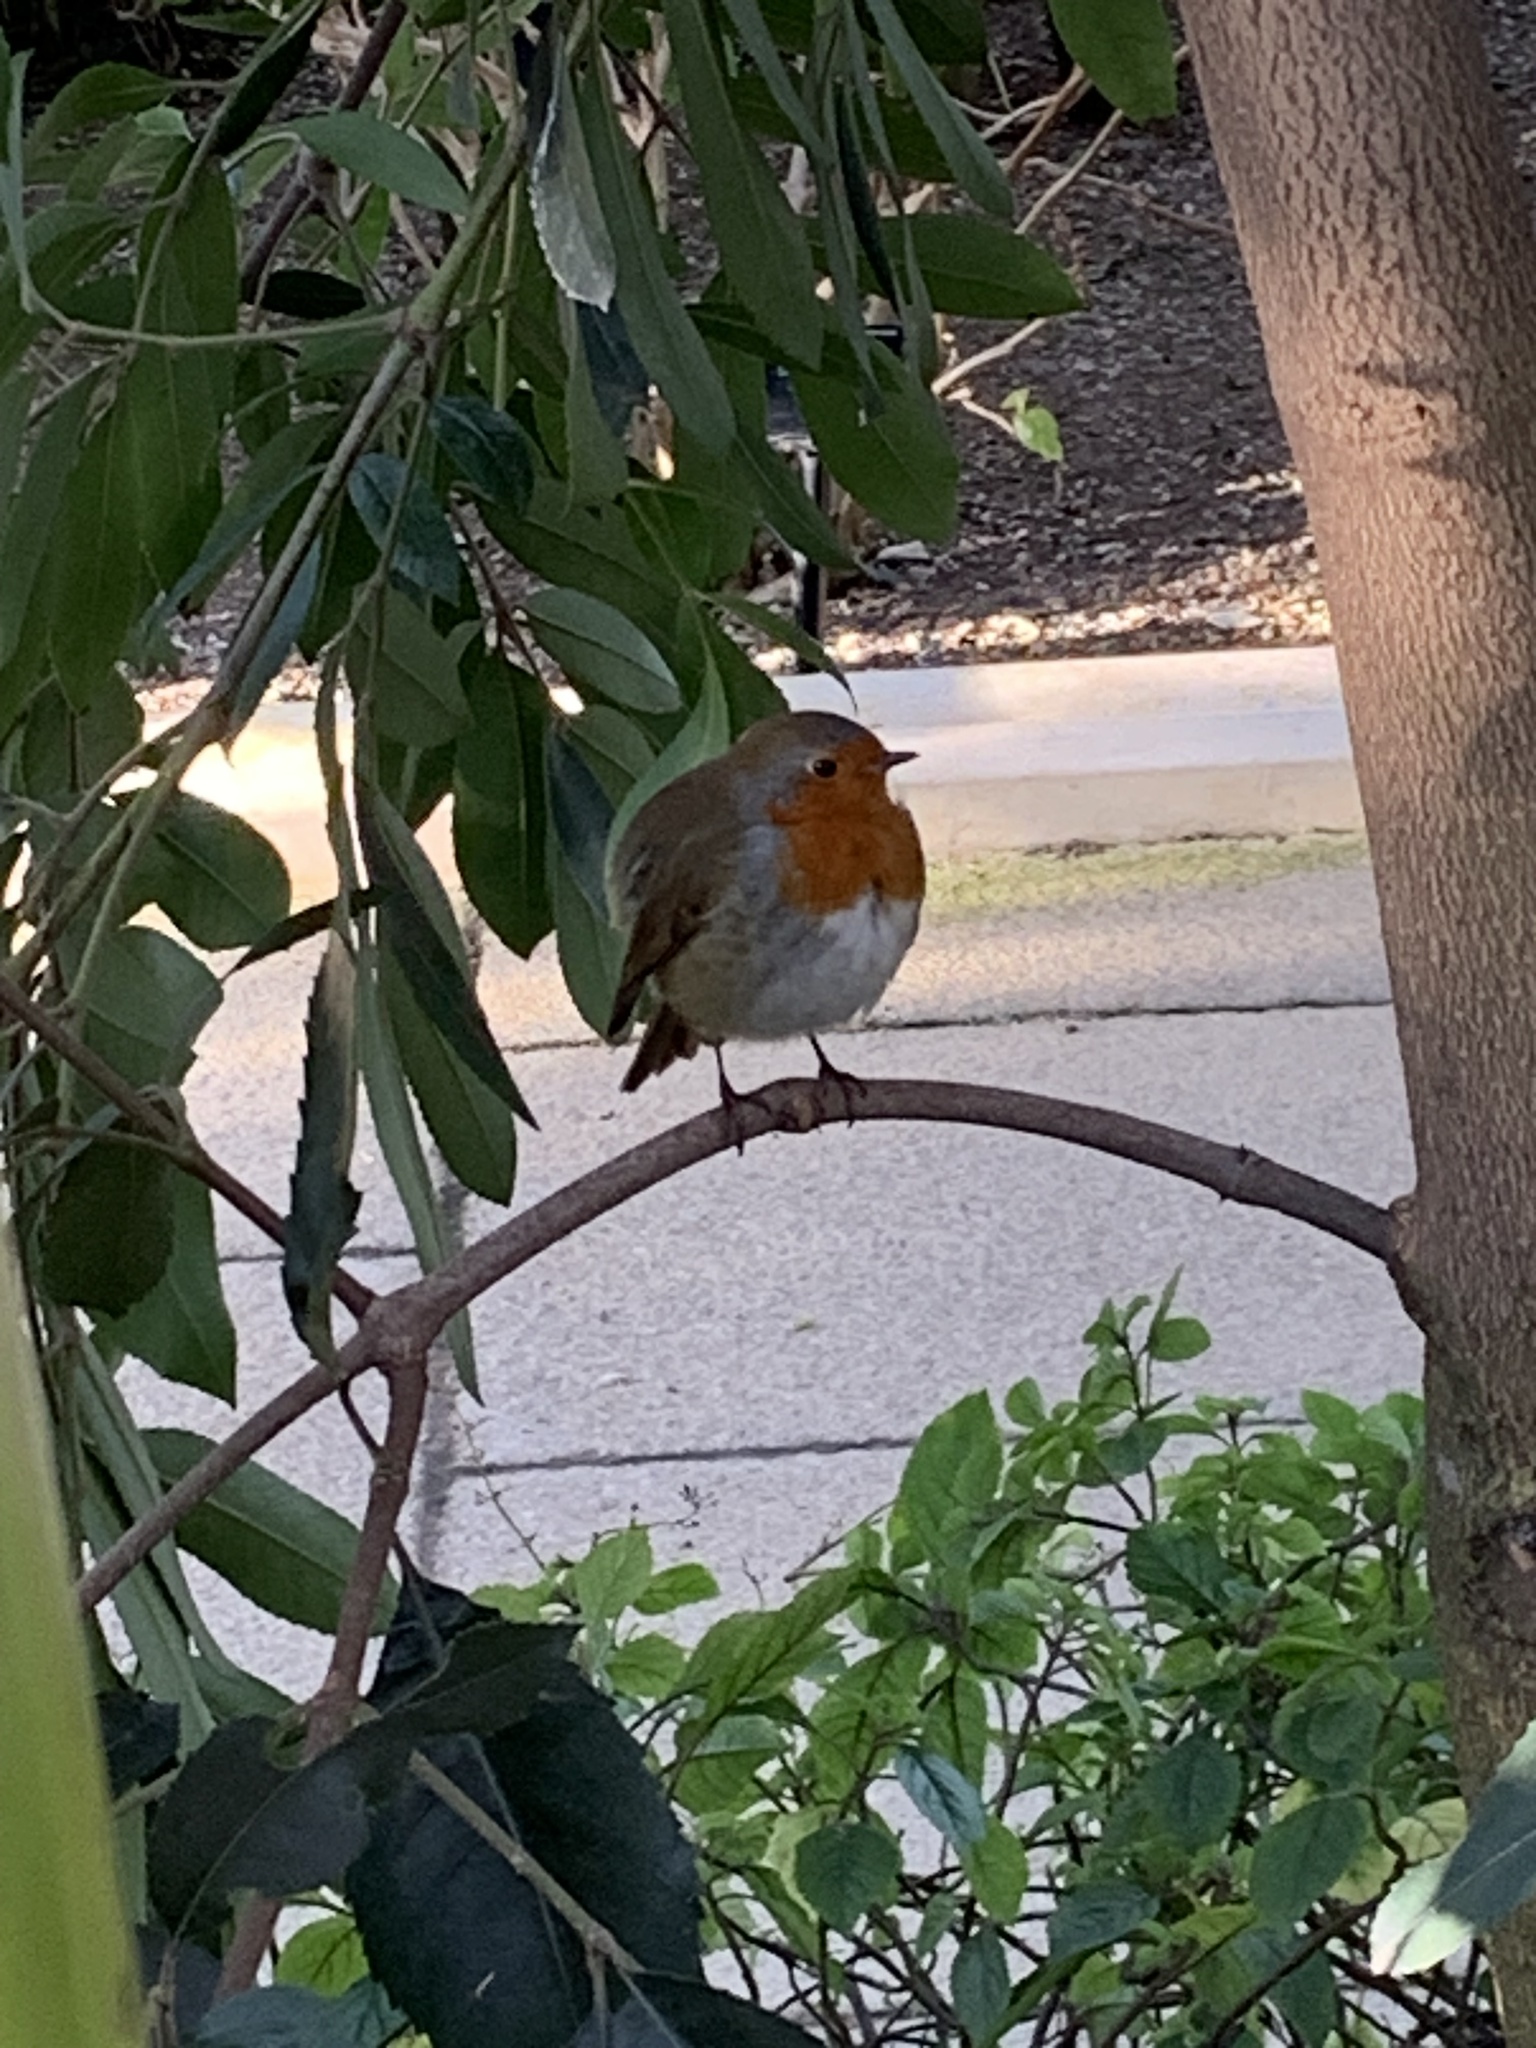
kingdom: Animalia
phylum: Chordata
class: Aves
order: Passeriformes
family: Muscicapidae
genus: Erithacus
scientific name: Erithacus rubecula
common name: European robin
